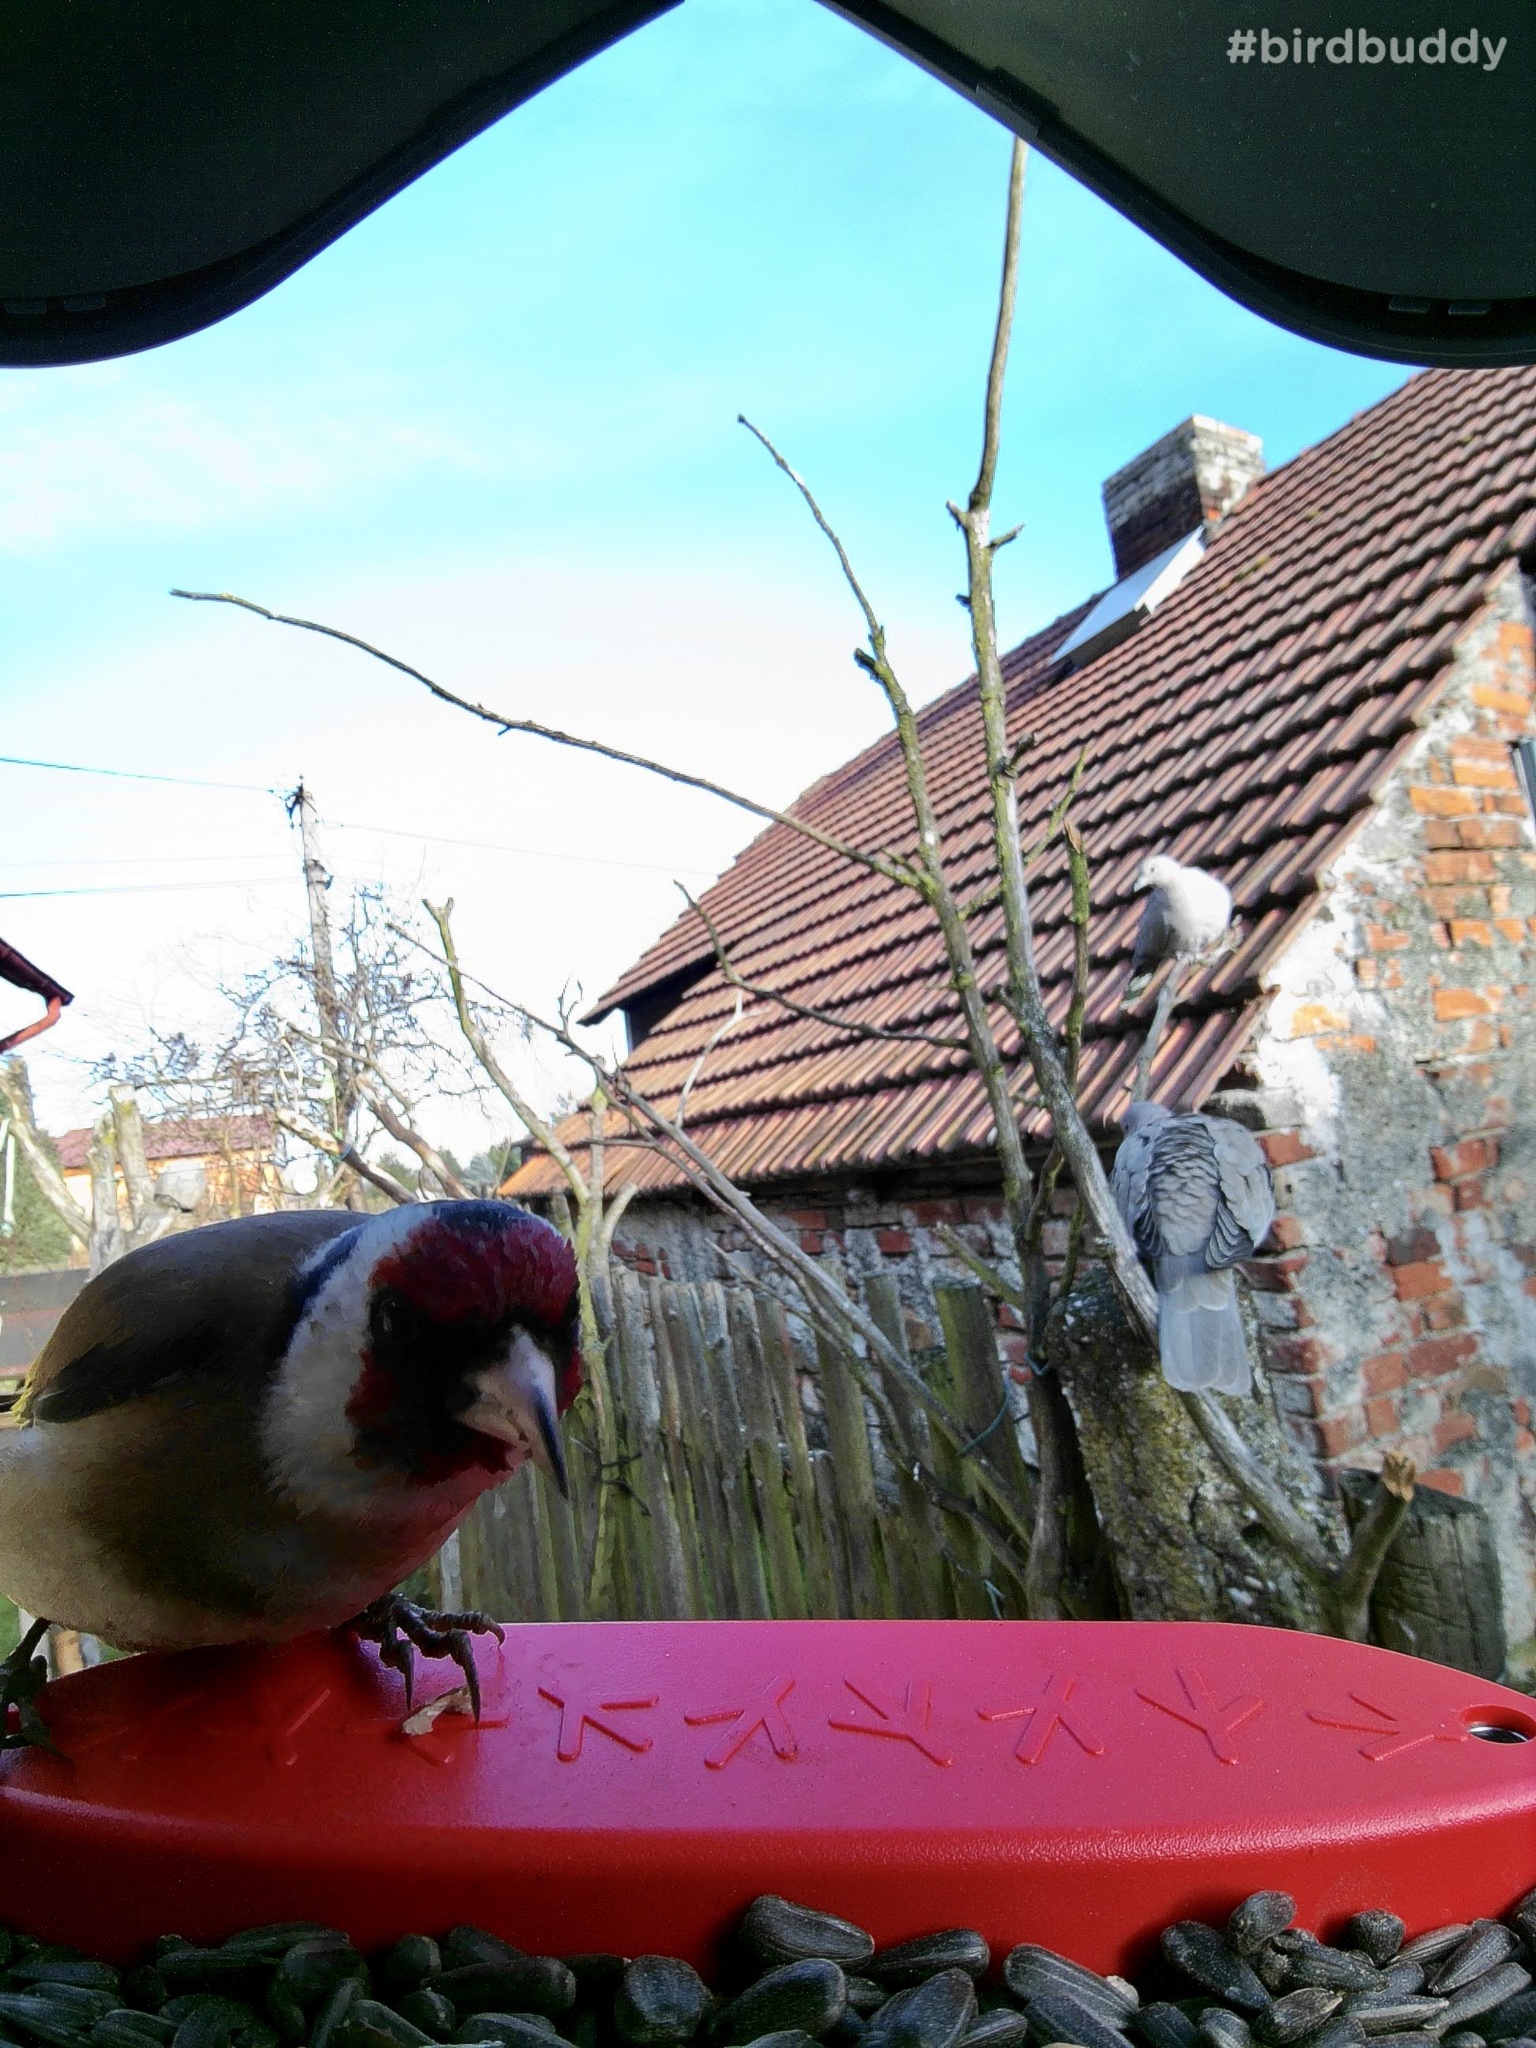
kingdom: Animalia
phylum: Chordata
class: Aves
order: Passeriformes
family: Fringillidae
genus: Carduelis
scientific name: Carduelis carduelis
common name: European goldfinch
